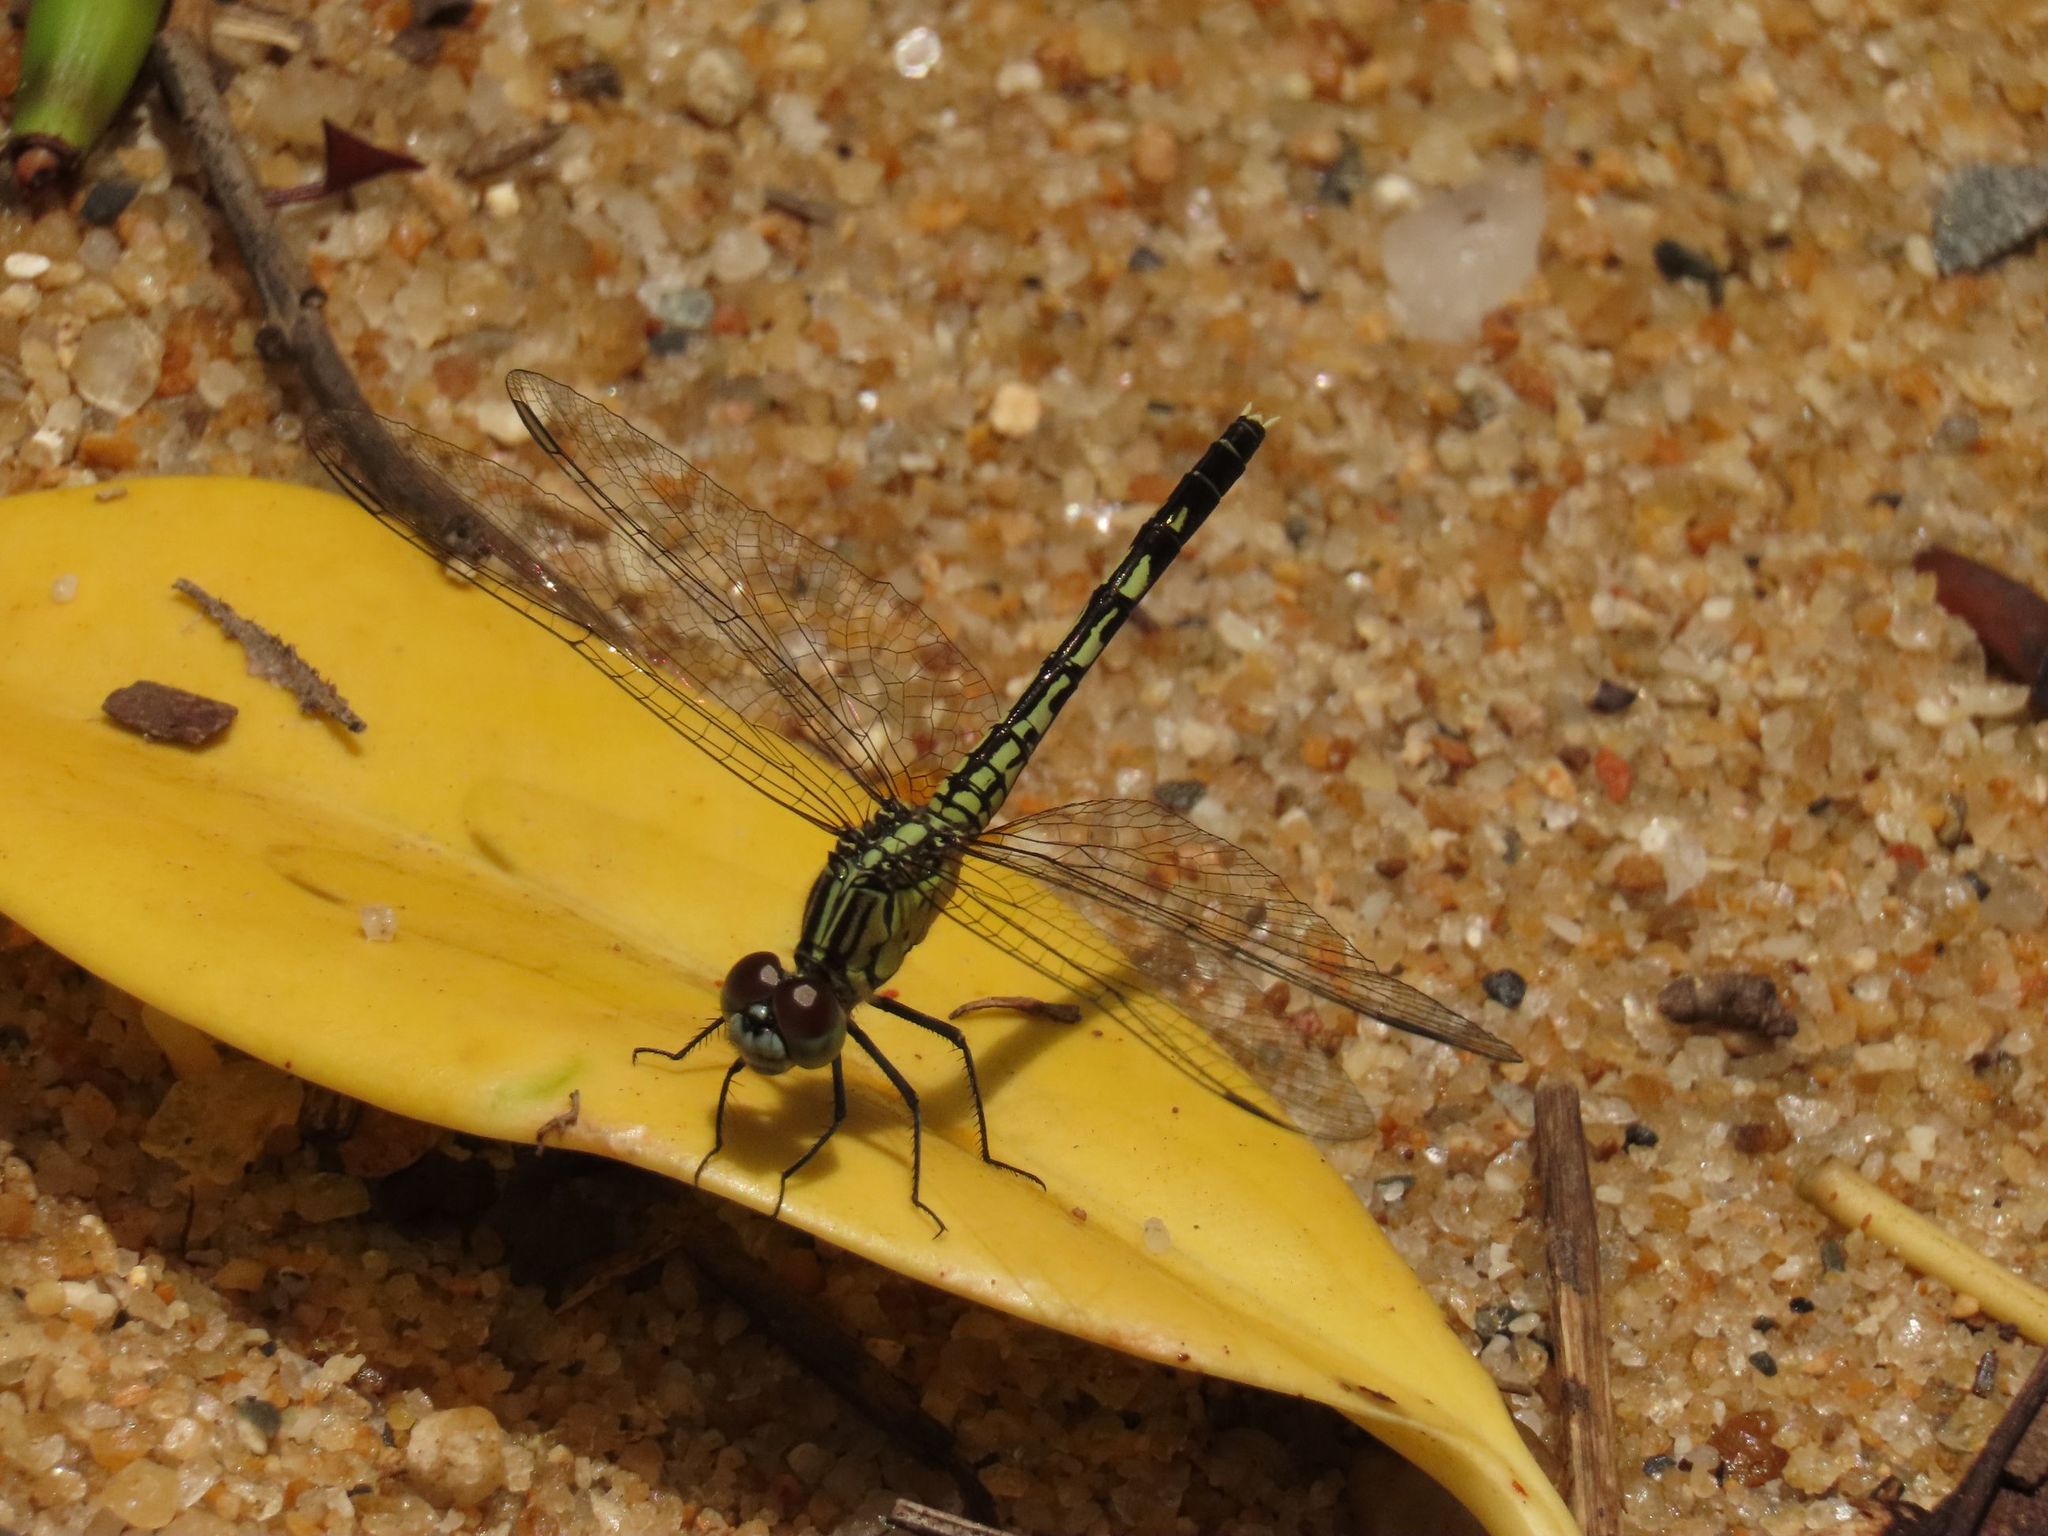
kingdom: Animalia
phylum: Arthropoda
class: Insecta
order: Odonata
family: Libellulidae
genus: Diplacodes
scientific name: Diplacodes trivialis
